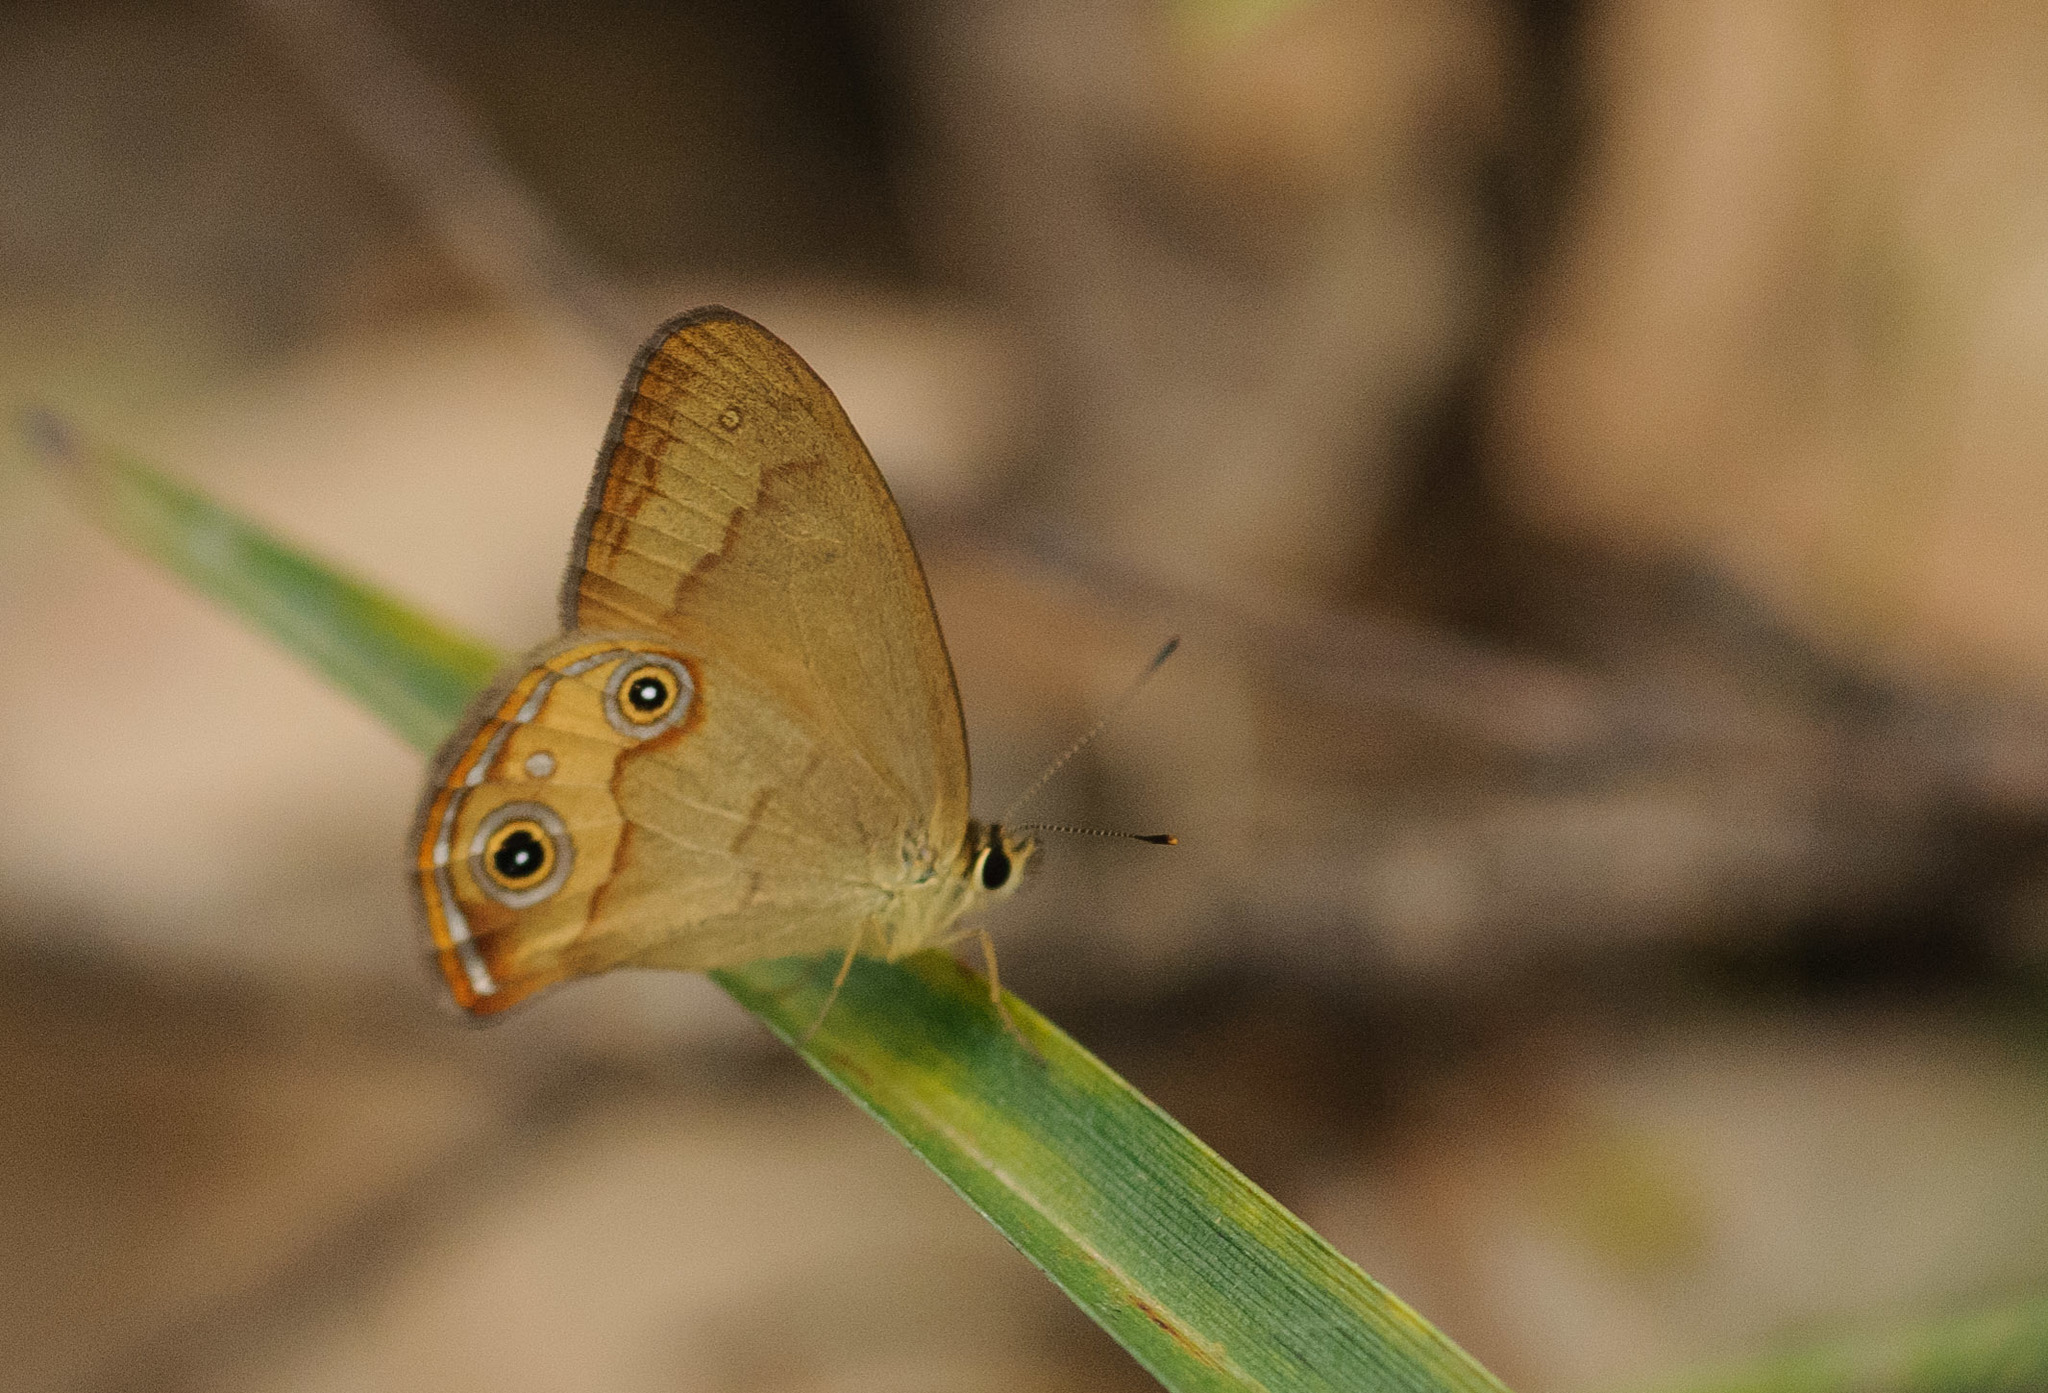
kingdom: Animalia
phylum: Arthropoda
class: Insecta
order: Lepidoptera
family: Nymphalidae
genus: Hypocysta
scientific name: Hypocysta metirius
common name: Brown ringlet
